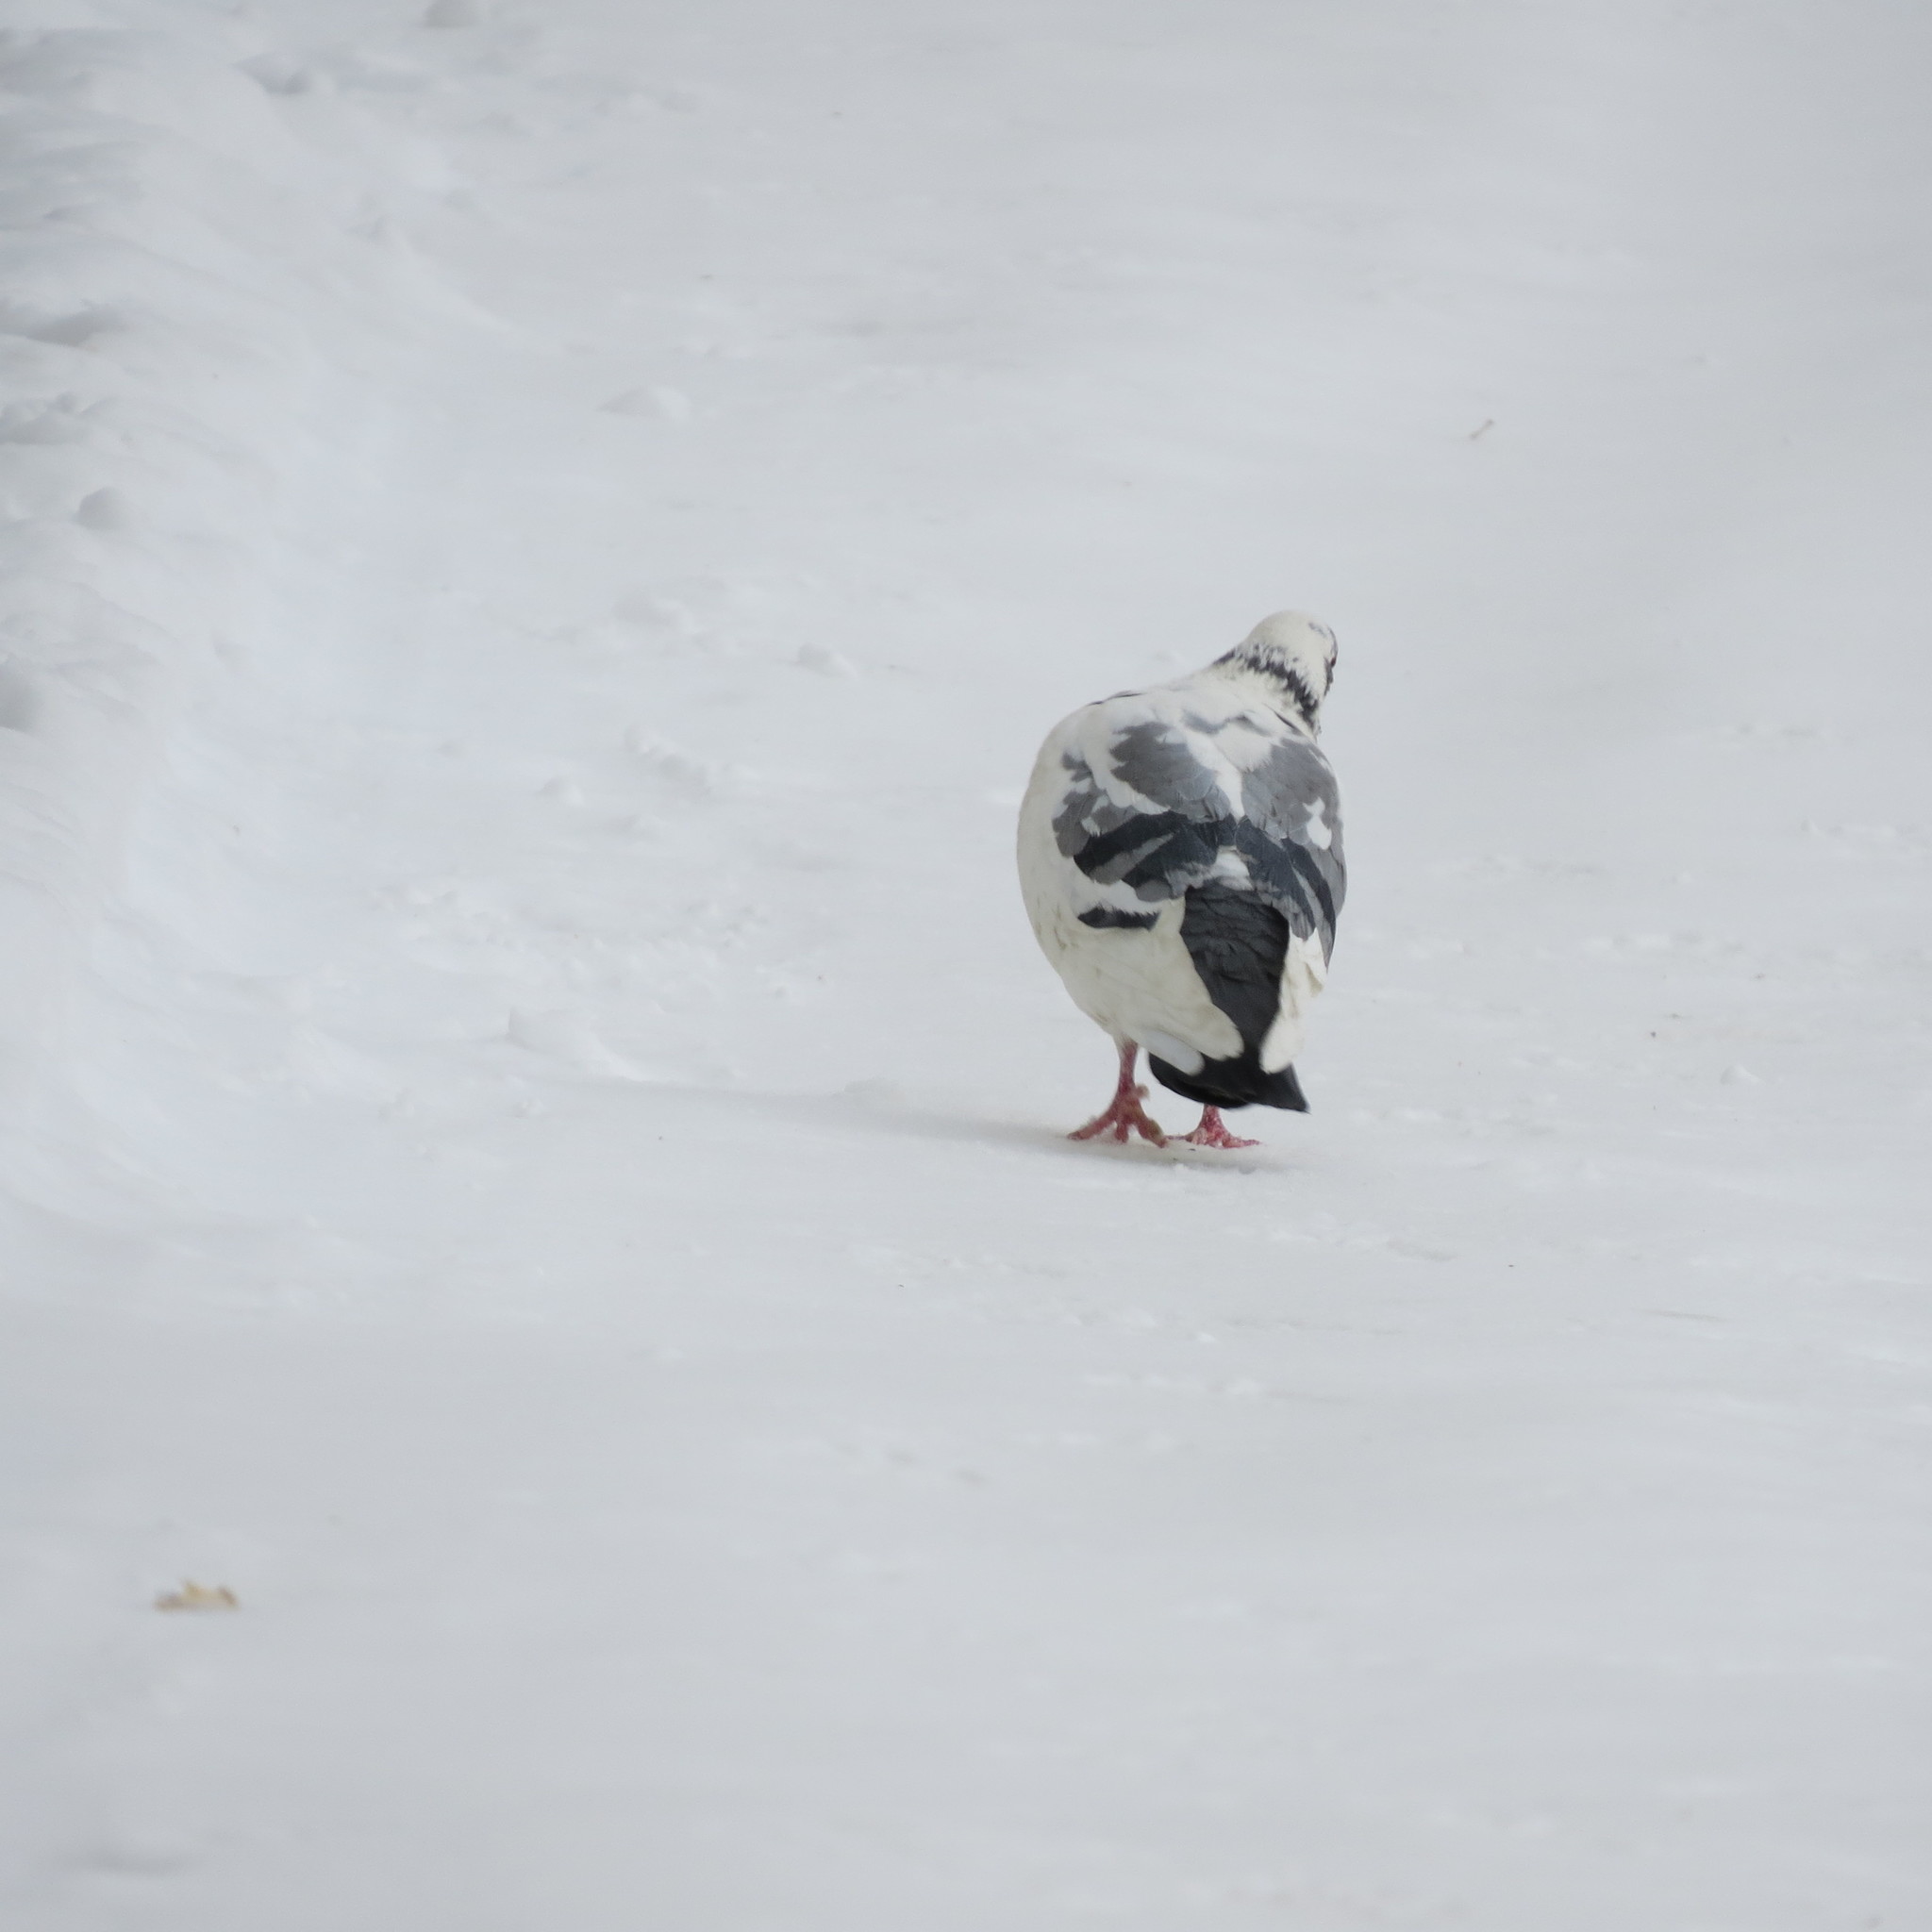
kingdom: Animalia
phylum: Chordata
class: Aves
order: Columbiformes
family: Columbidae
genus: Columba
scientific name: Columba livia
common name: Rock pigeon
